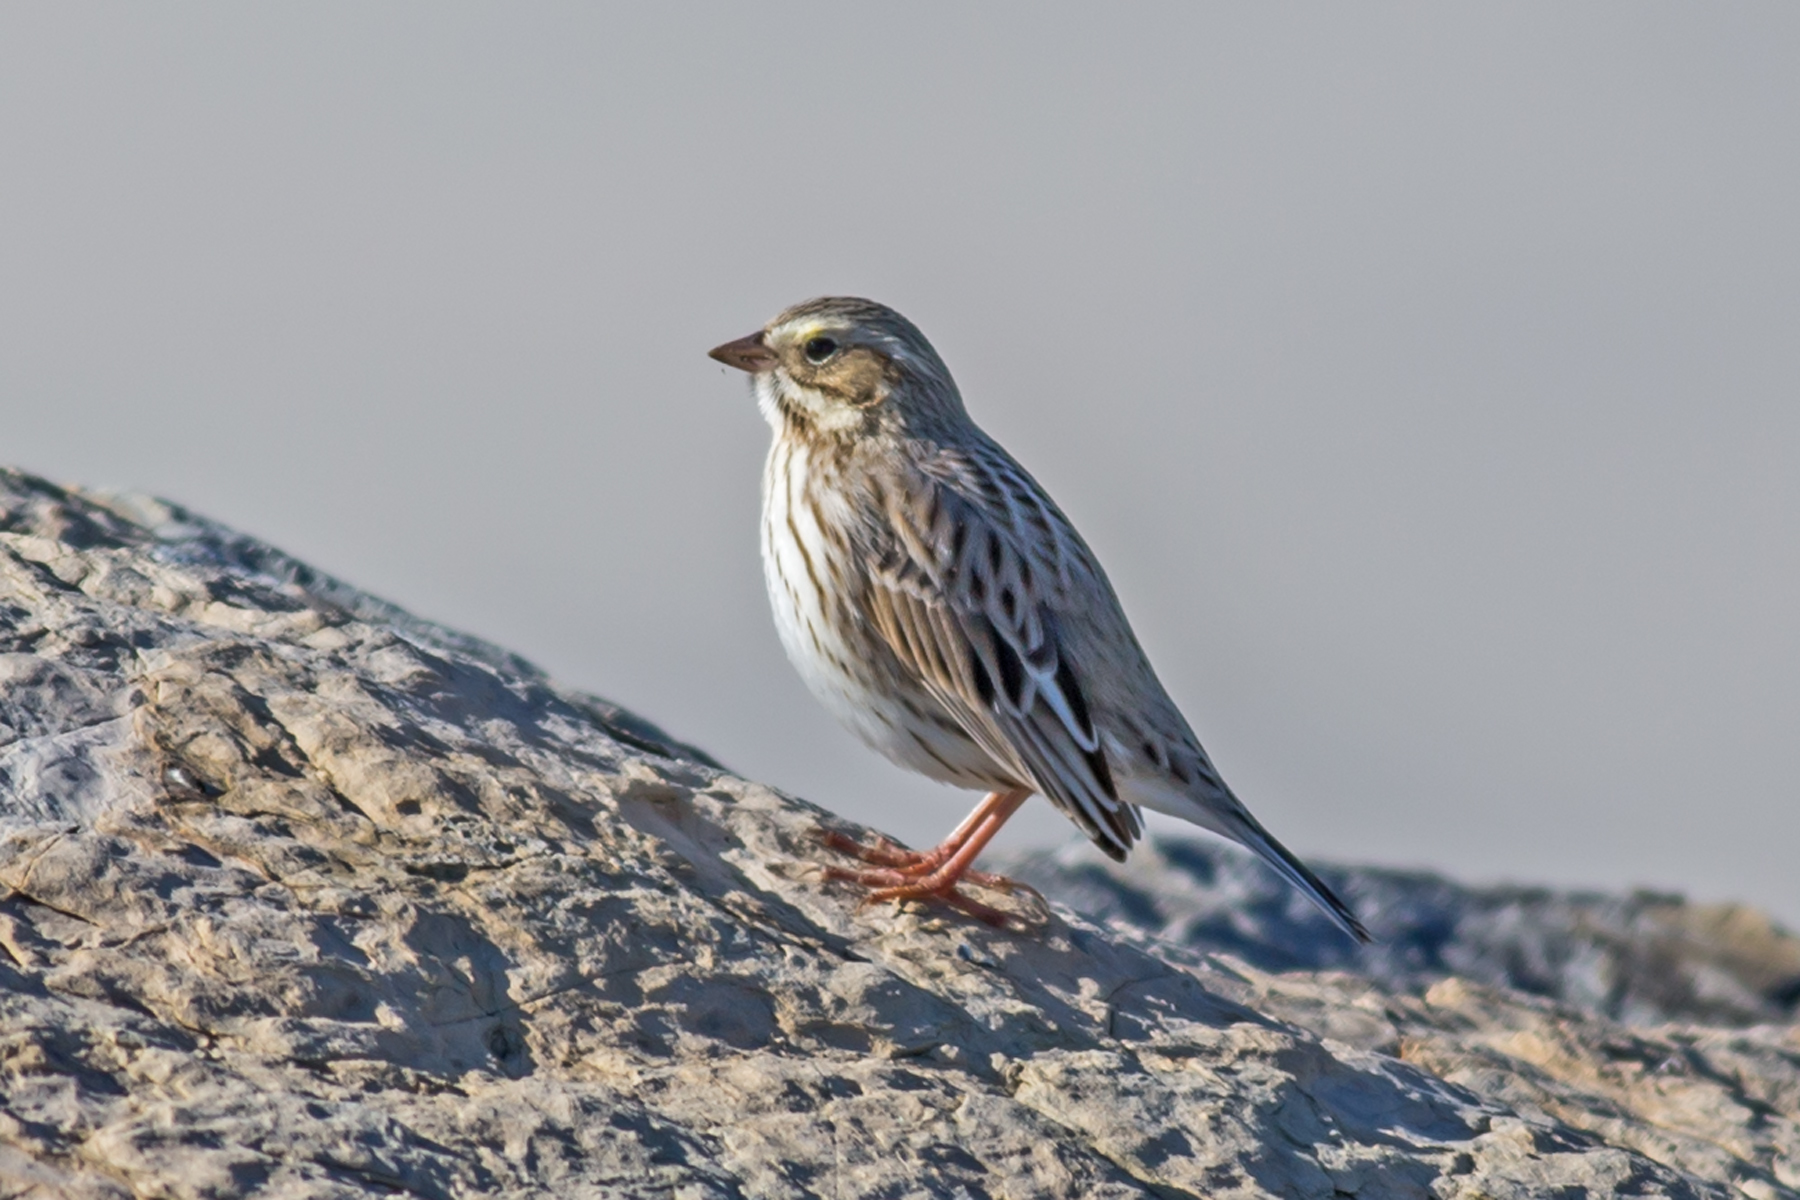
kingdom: Animalia
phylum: Chordata
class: Aves
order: Passeriformes
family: Passerellidae
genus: Passerculus
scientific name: Passerculus sandwichensis
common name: Savannah sparrow
